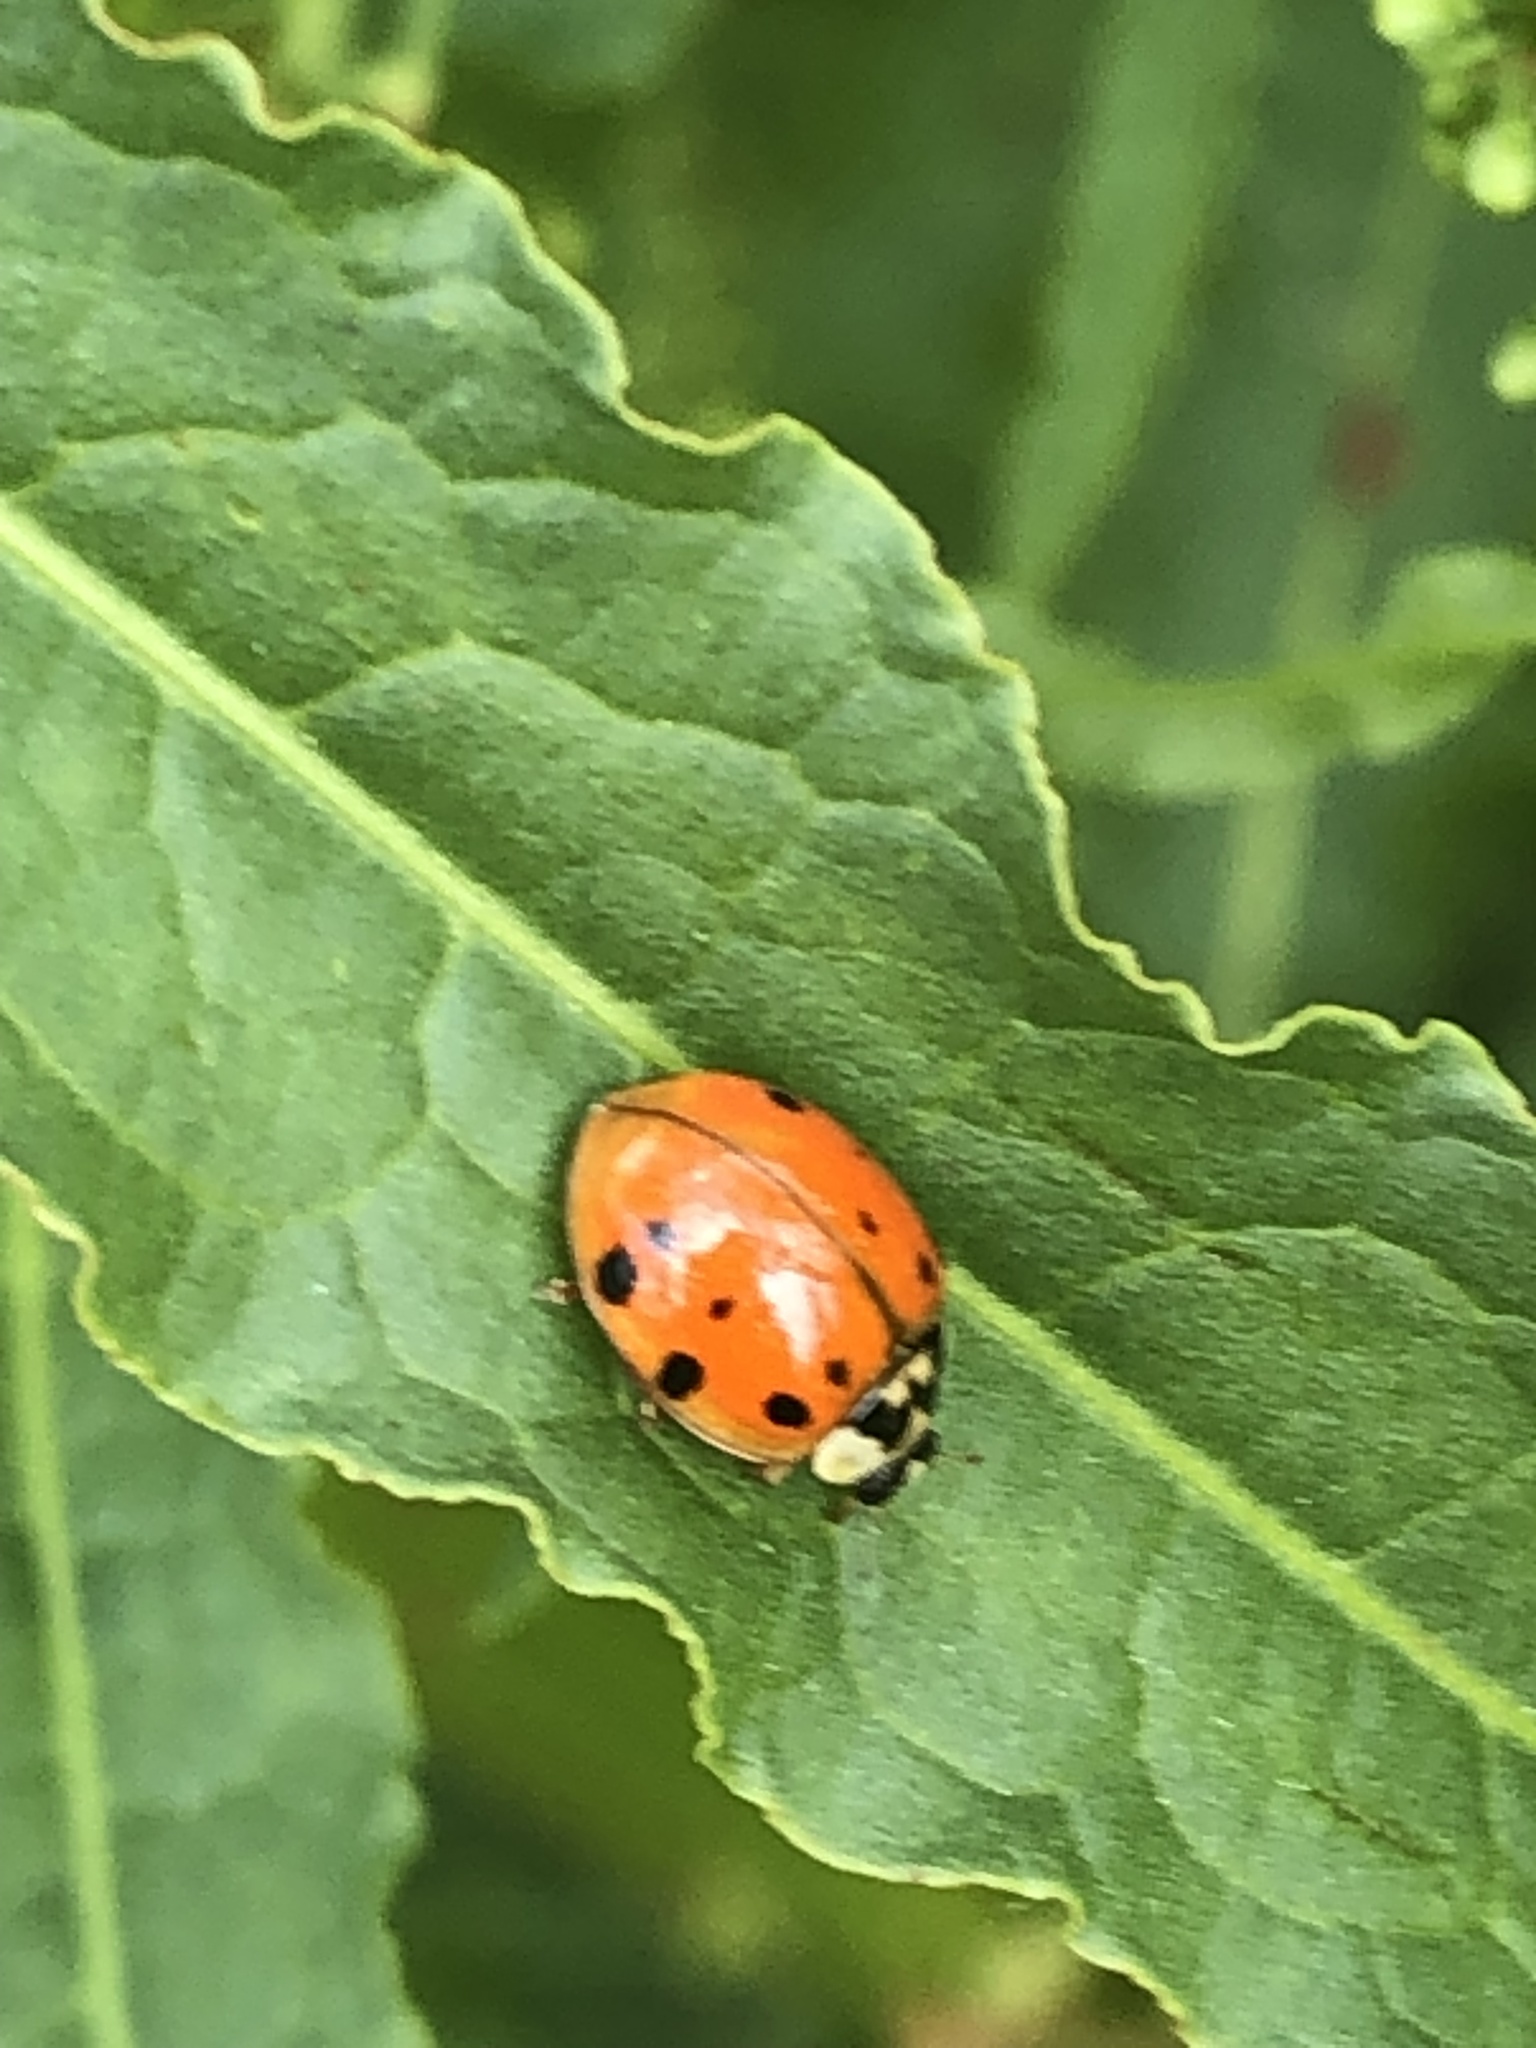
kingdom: Animalia
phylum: Arthropoda
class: Insecta
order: Coleoptera
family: Coccinellidae
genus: Harmonia
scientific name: Harmonia axyridis
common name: Harlequin ladybird
